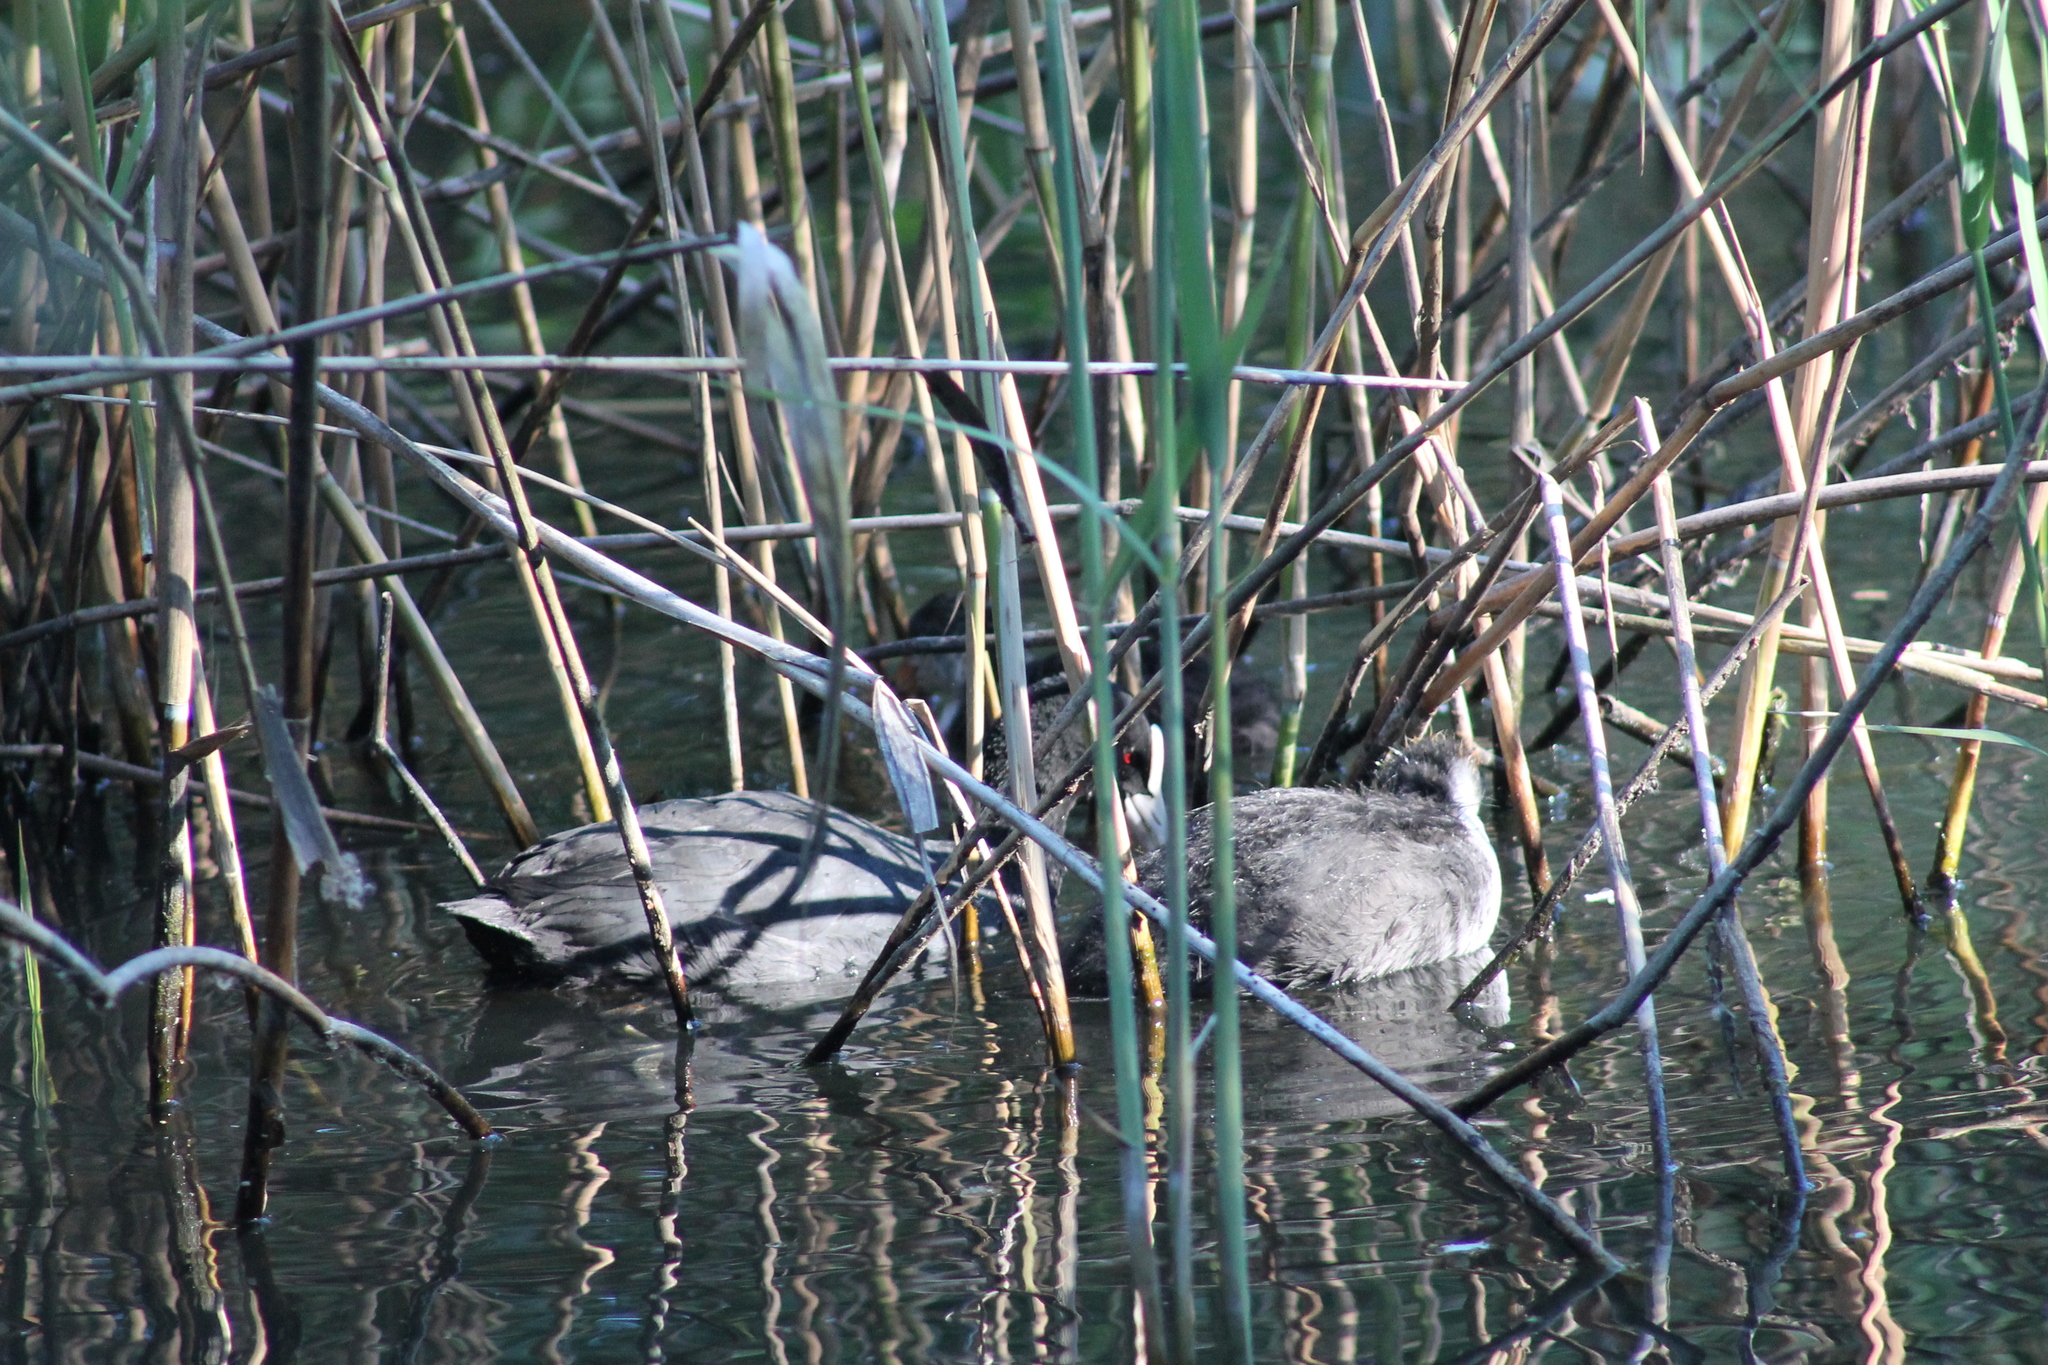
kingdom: Animalia
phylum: Chordata
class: Aves
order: Gruiformes
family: Rallidae
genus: Fulica
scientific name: Fulica atra
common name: Eurasian coot
